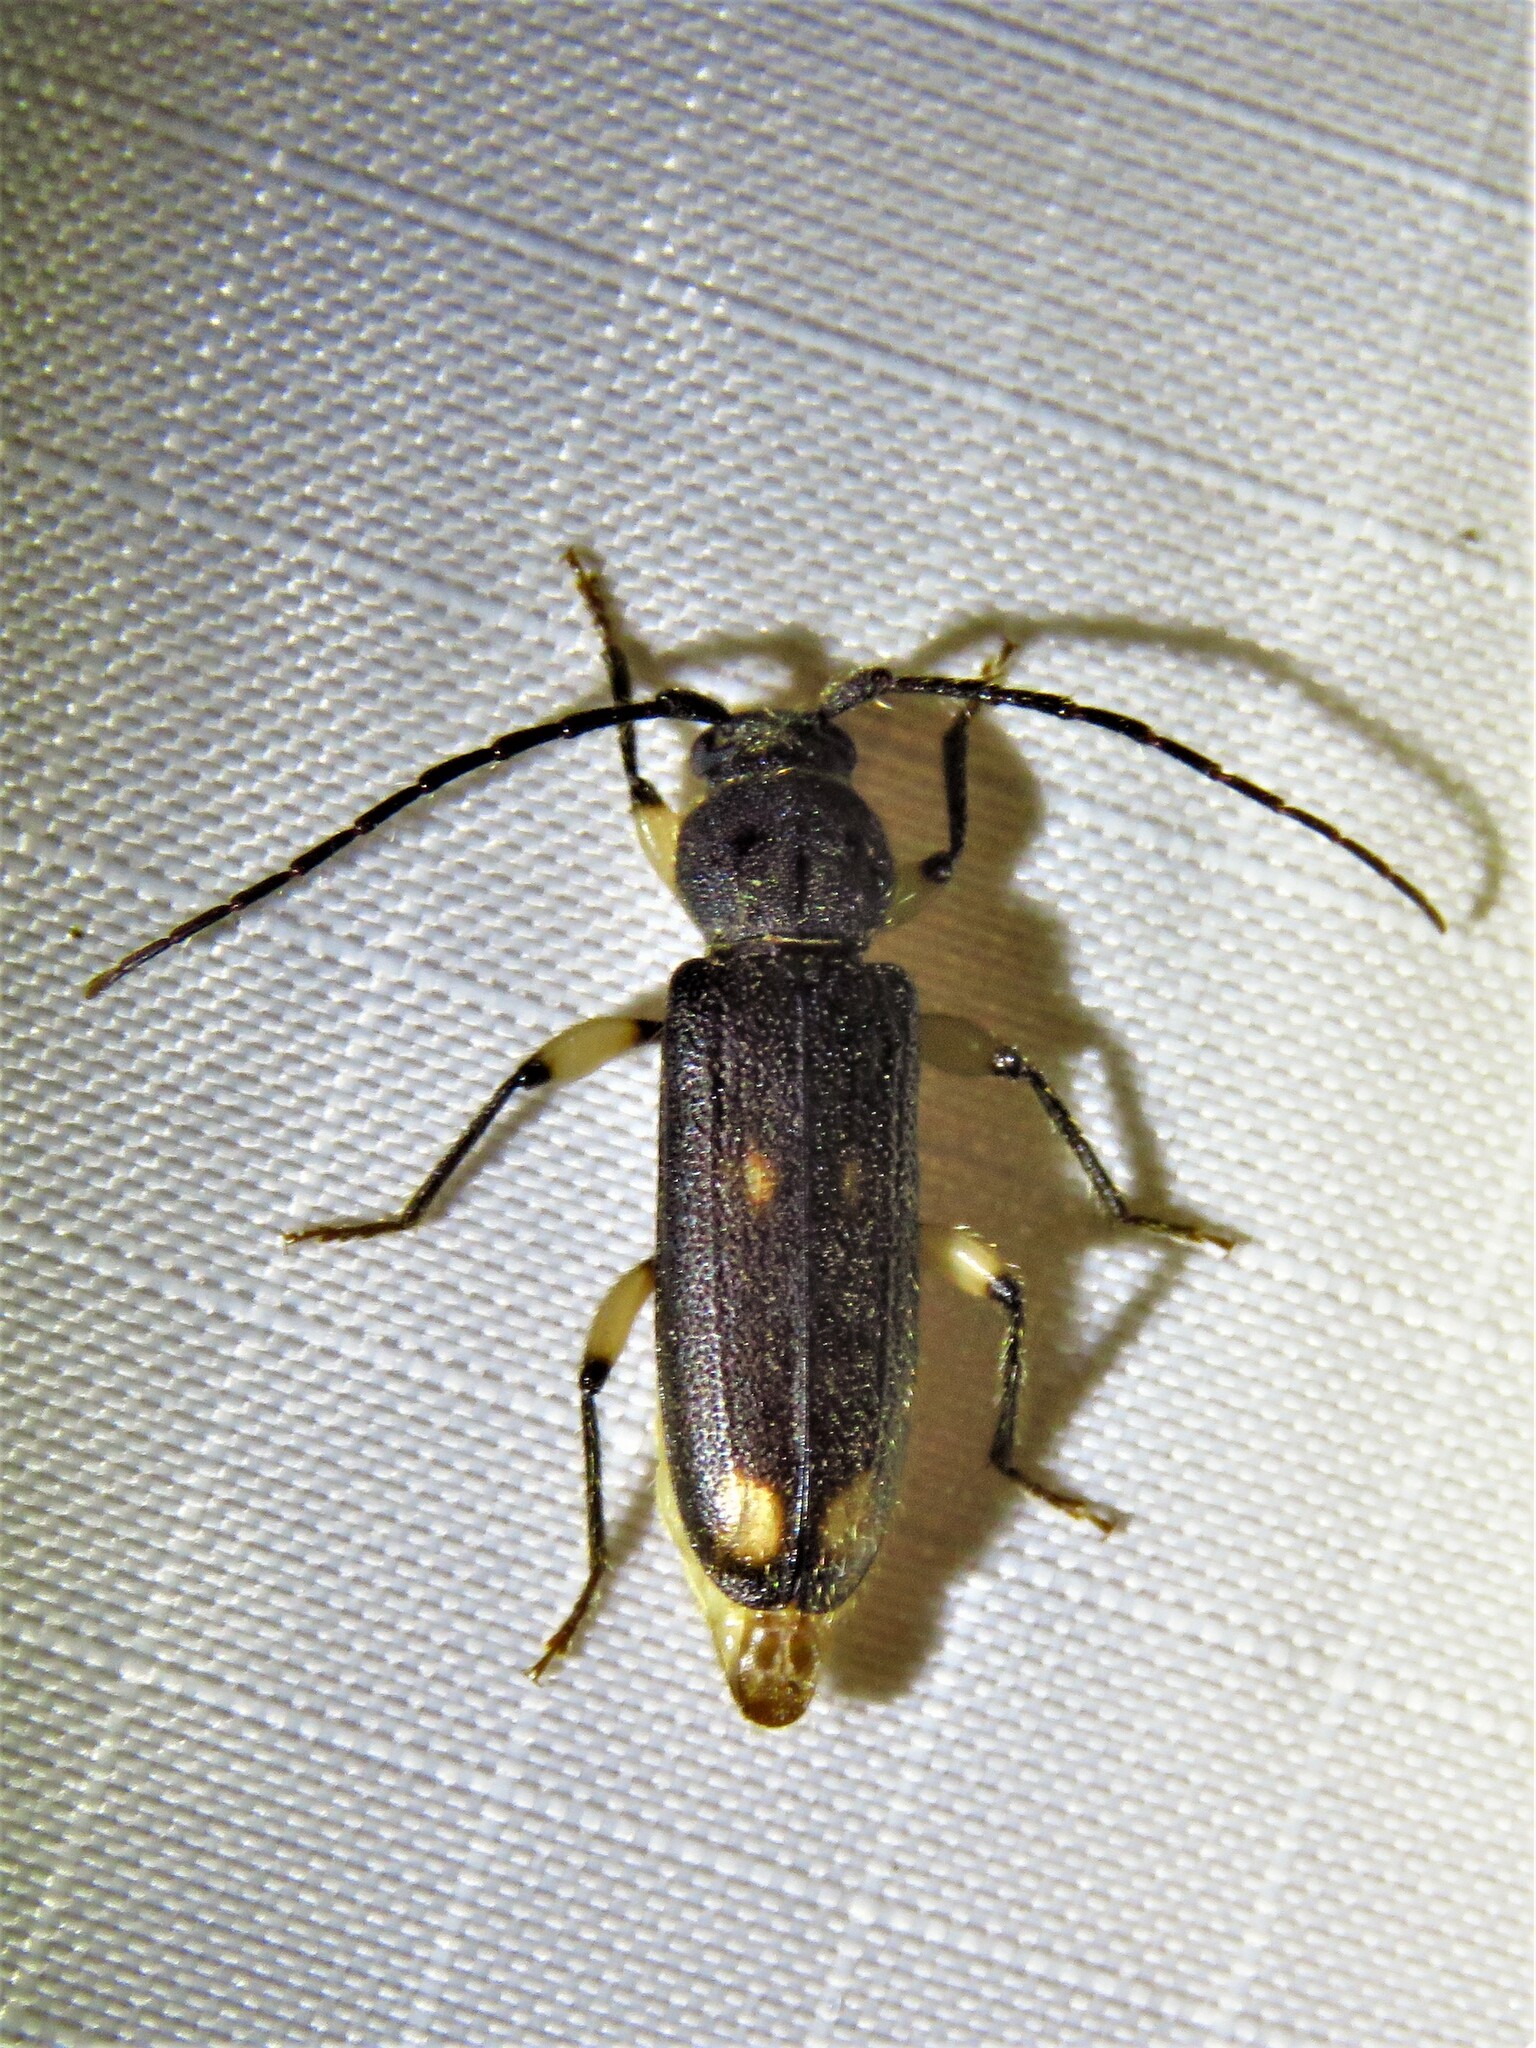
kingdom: Animalia
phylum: Arthropoda
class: Insecta
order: Coleoptera
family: Cerambycidae
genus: Tylonotus
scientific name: Tylonotus bimaculatus
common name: Ash and privet borer
